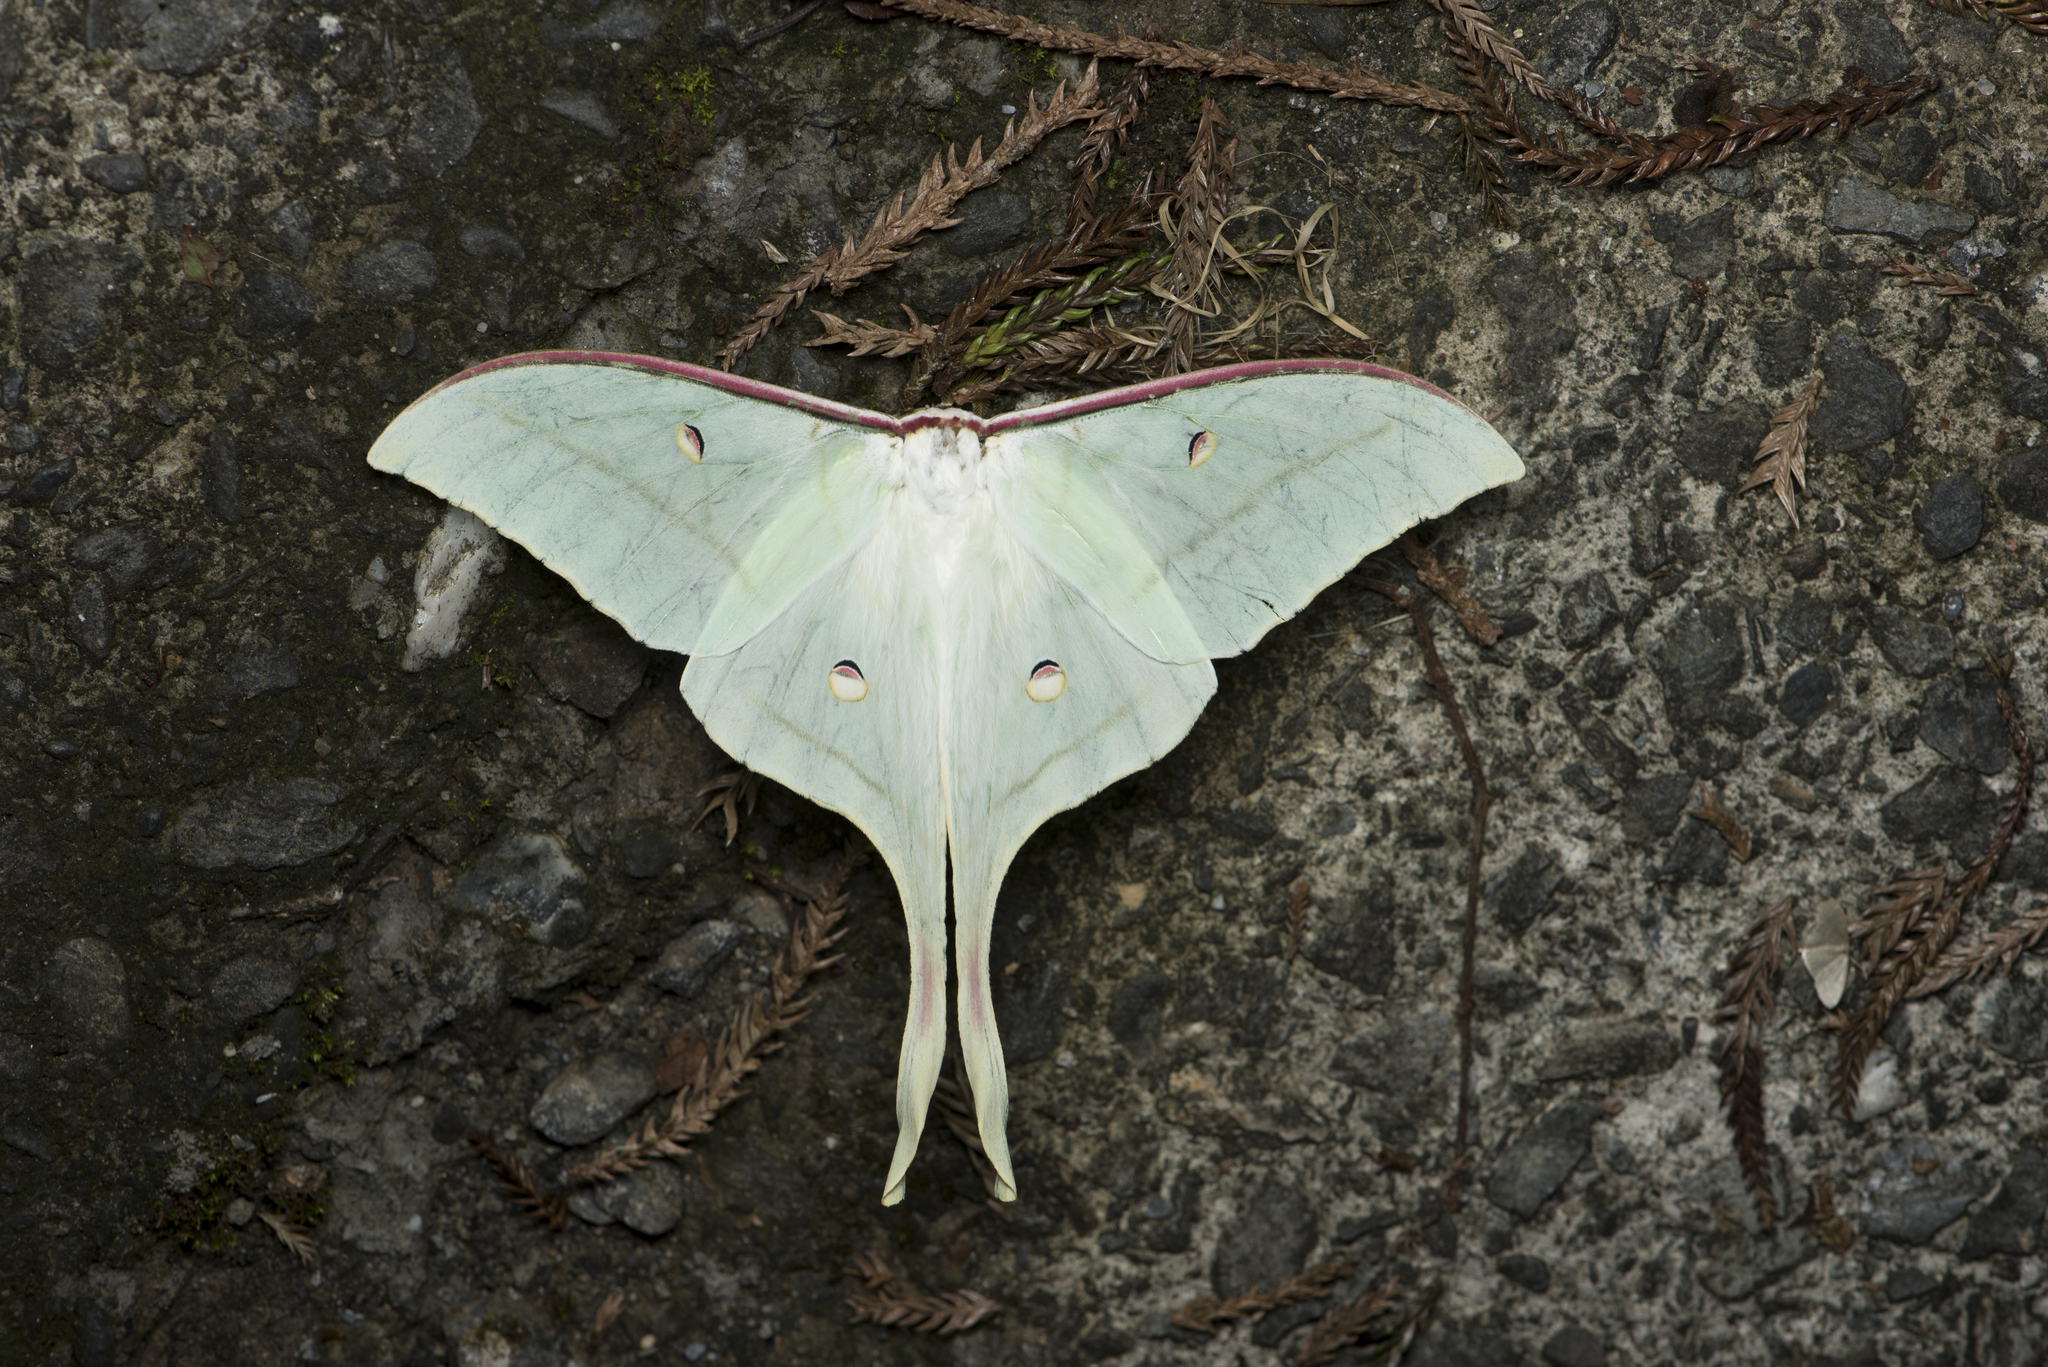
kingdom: Animalia
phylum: Arthropoda
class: Insecta
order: Lepidoptera
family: Saturniidae
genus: Actias
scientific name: Actias ningpoana
